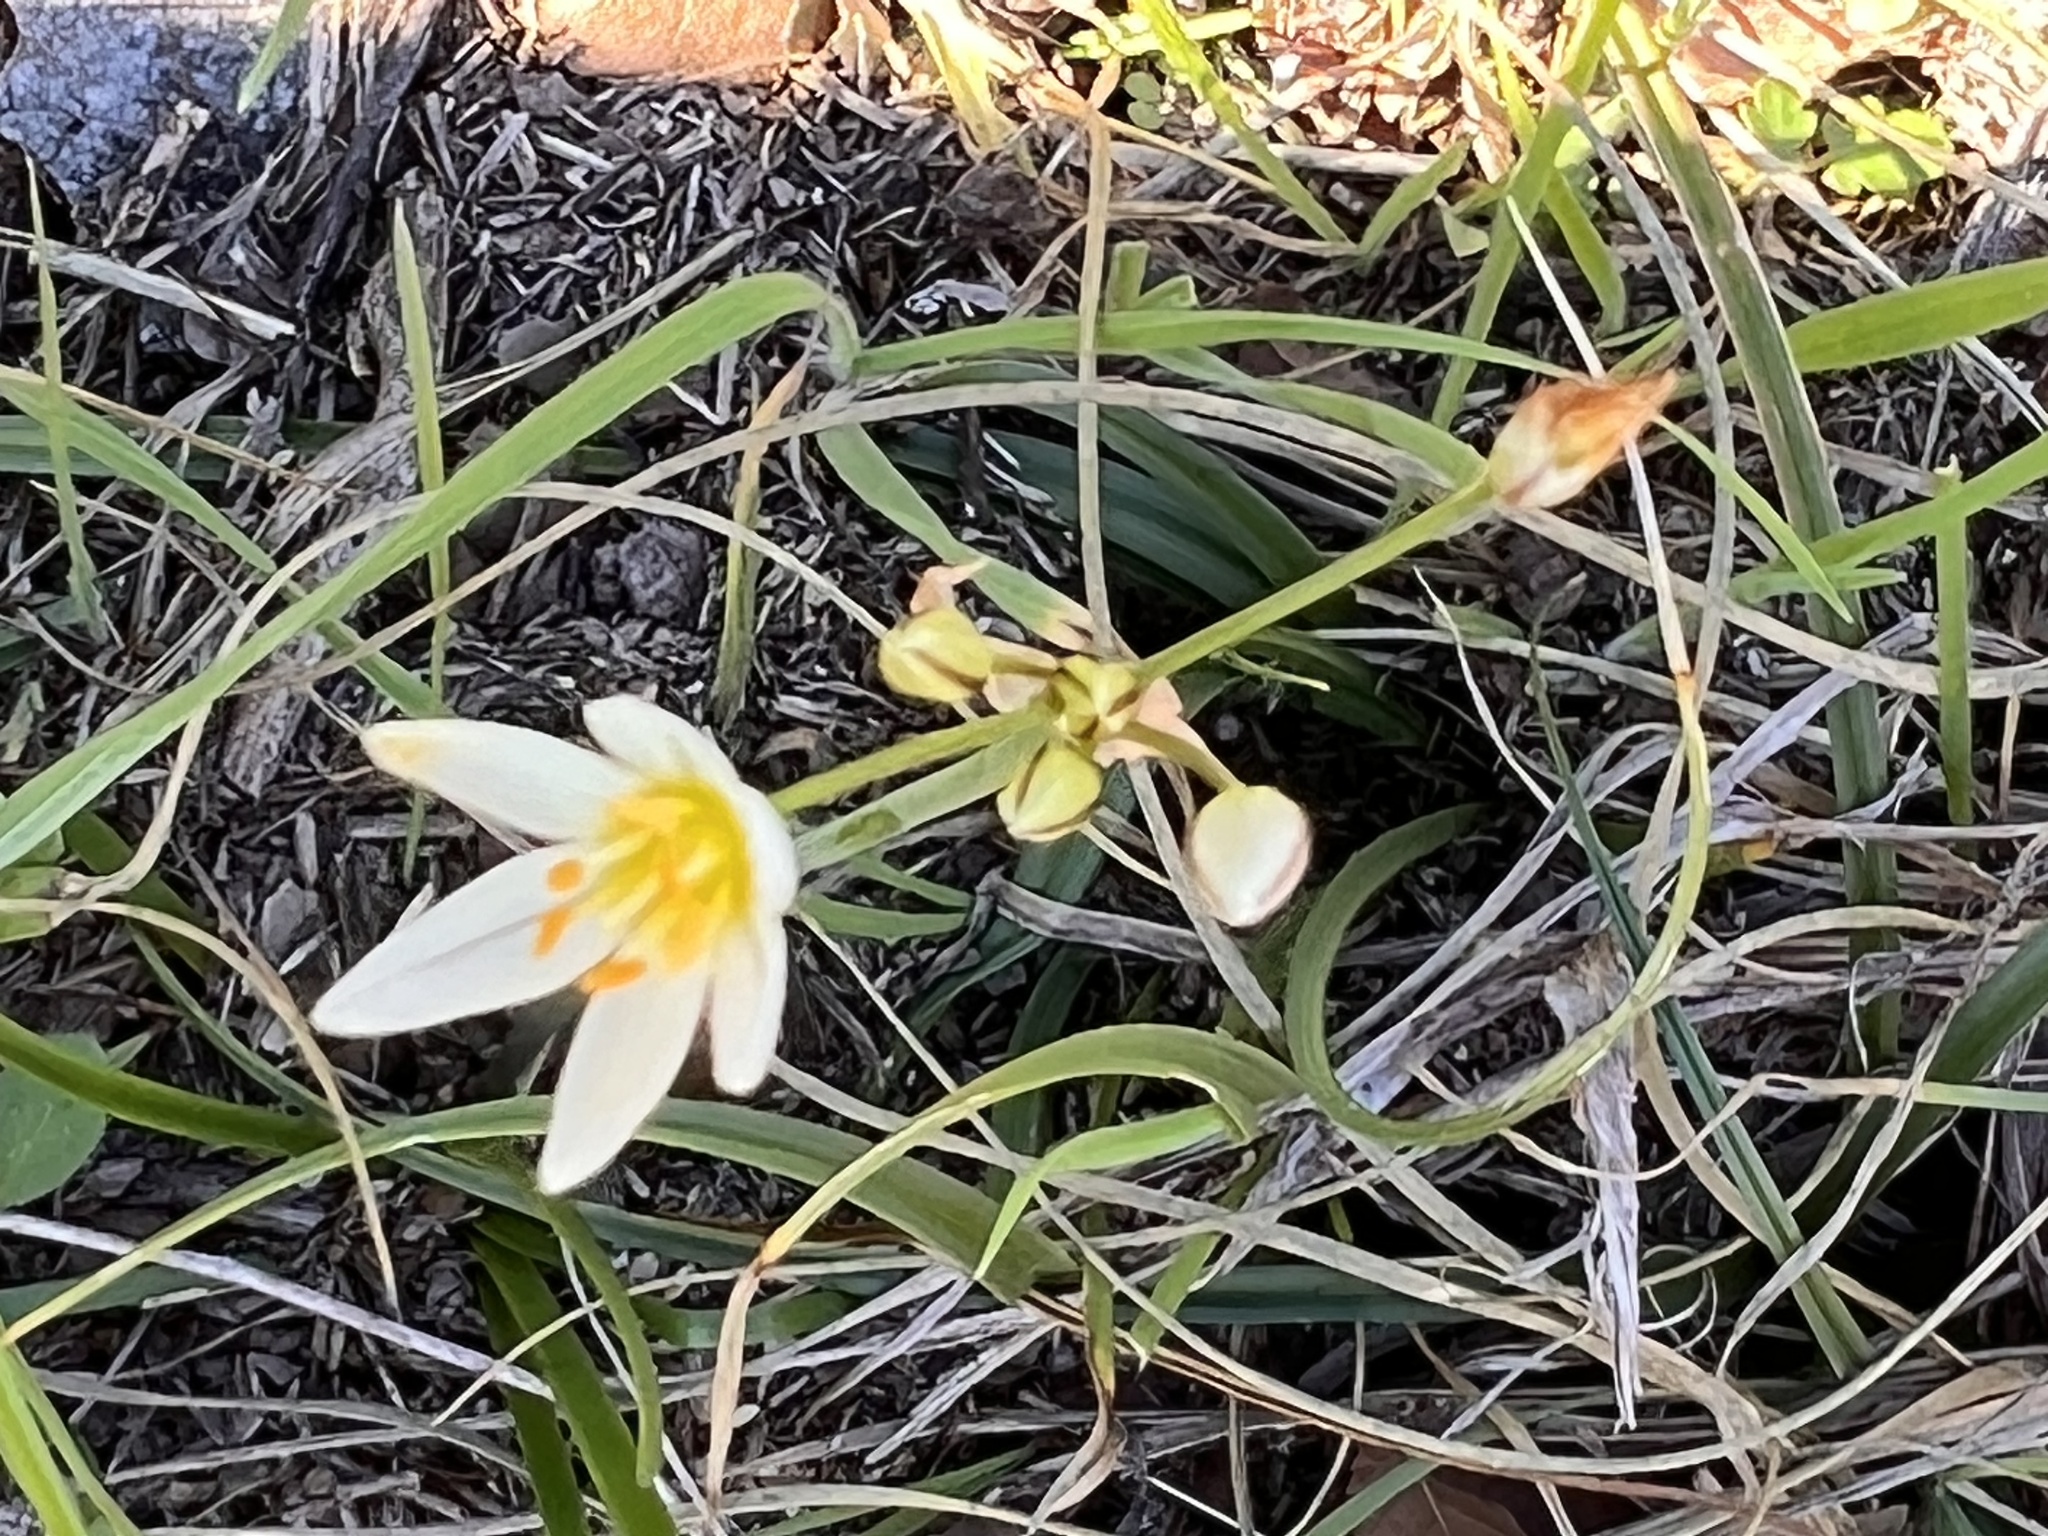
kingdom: Plantae
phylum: Tracheophyta
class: Liliopsida
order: Asparagales
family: Amaryllidaceae
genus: Nothoscordum
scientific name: Nothoscordum bivalve
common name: Crow-poison
